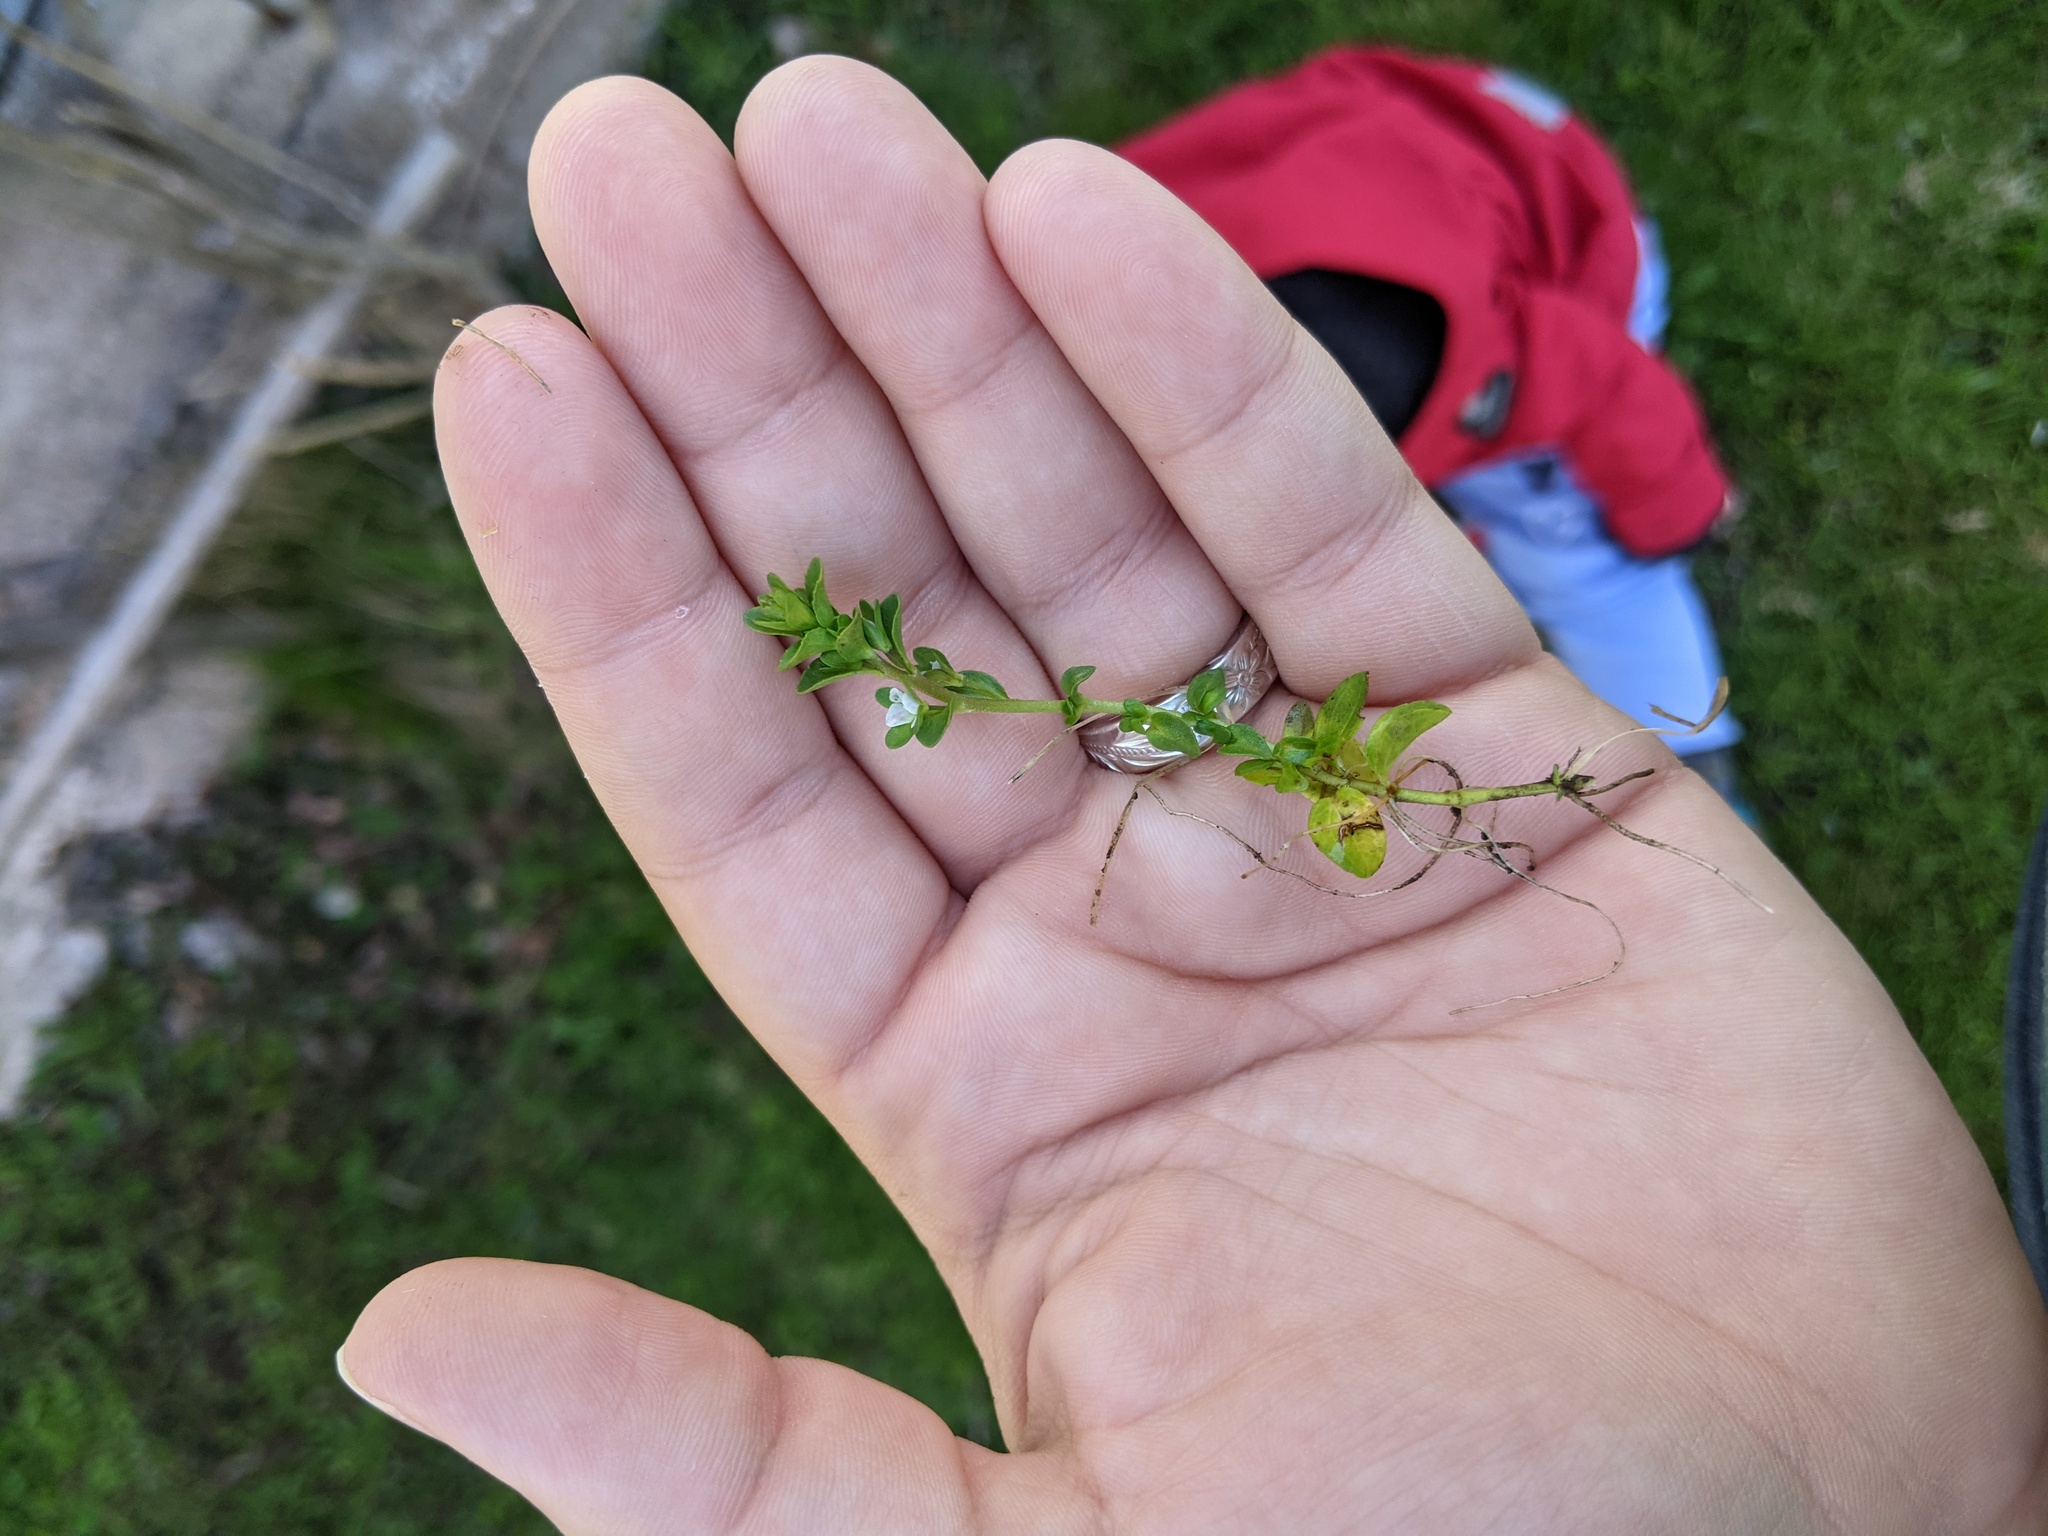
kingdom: Plantae
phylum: Tracheophyta
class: Magnoliopsida
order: Lamiales
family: Plantaginaceae
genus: Veronica
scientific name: Veronica serpyllifolia
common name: Thyme-leaved speedwell
